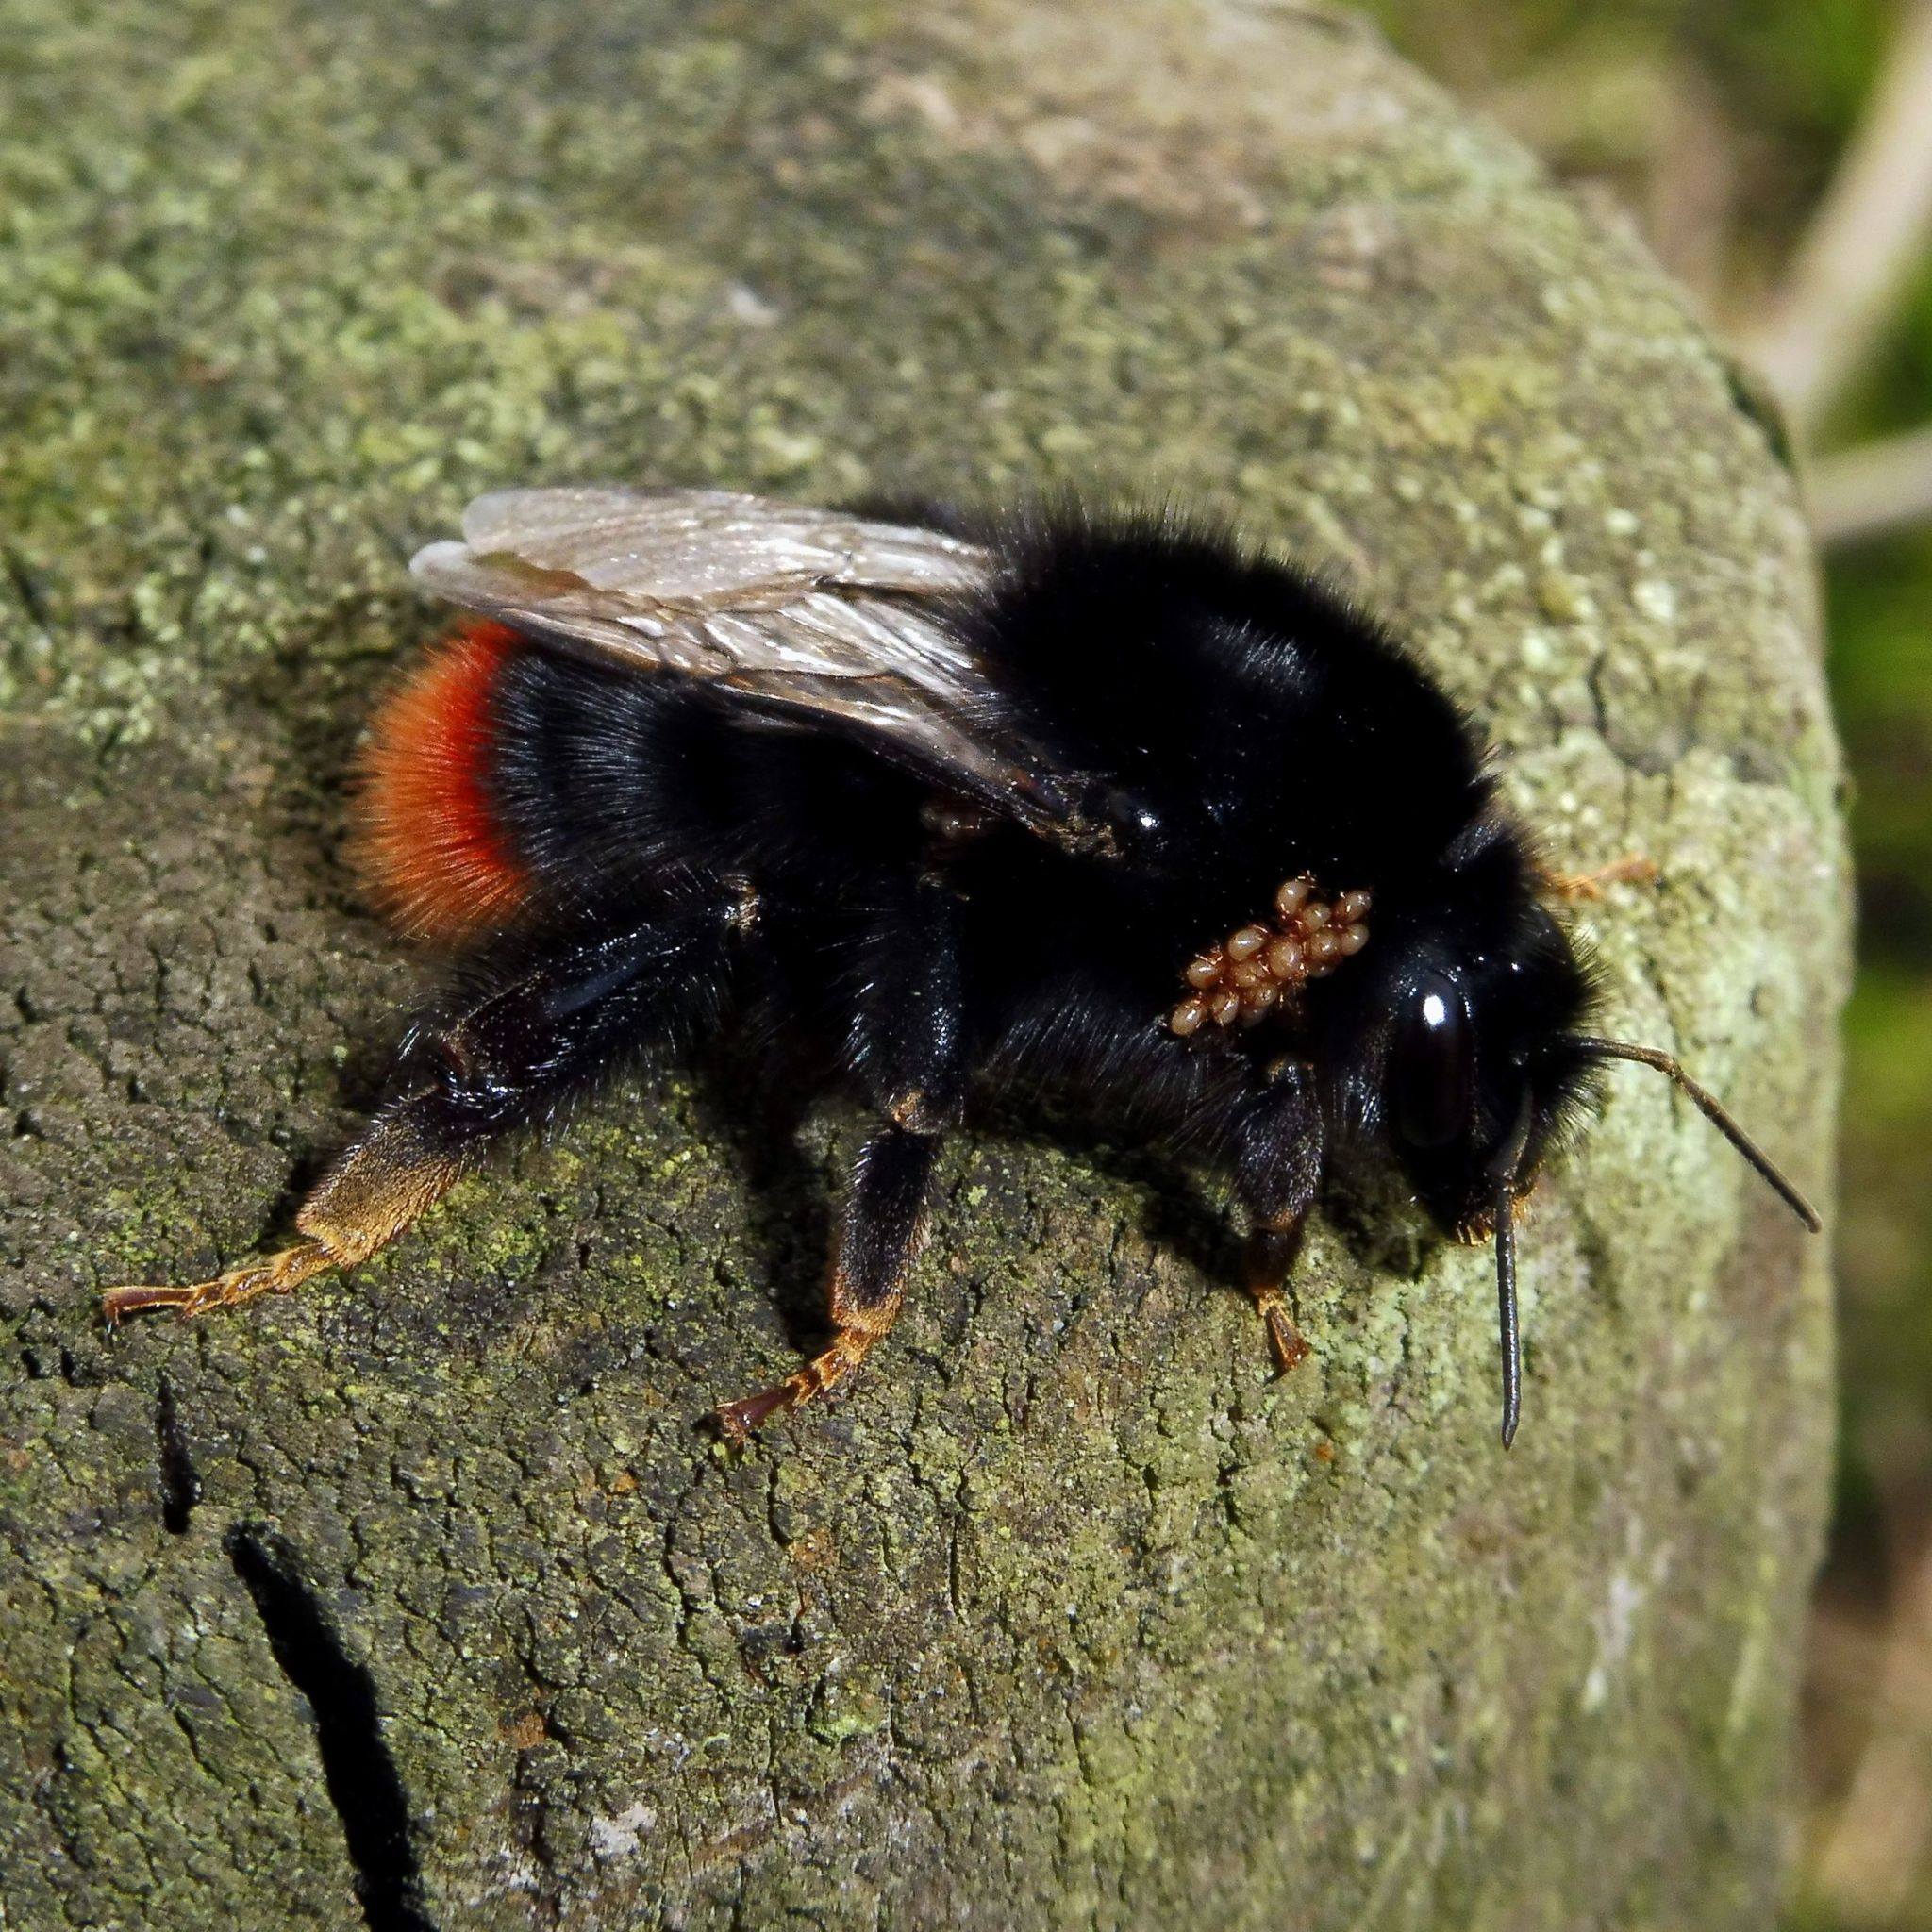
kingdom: Animalia
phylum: Arthropoda
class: Insecta
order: Hymenoptera
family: Apidae
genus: Bombus
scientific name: Bombus lapidarius
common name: Large red-tailed humble-bee
